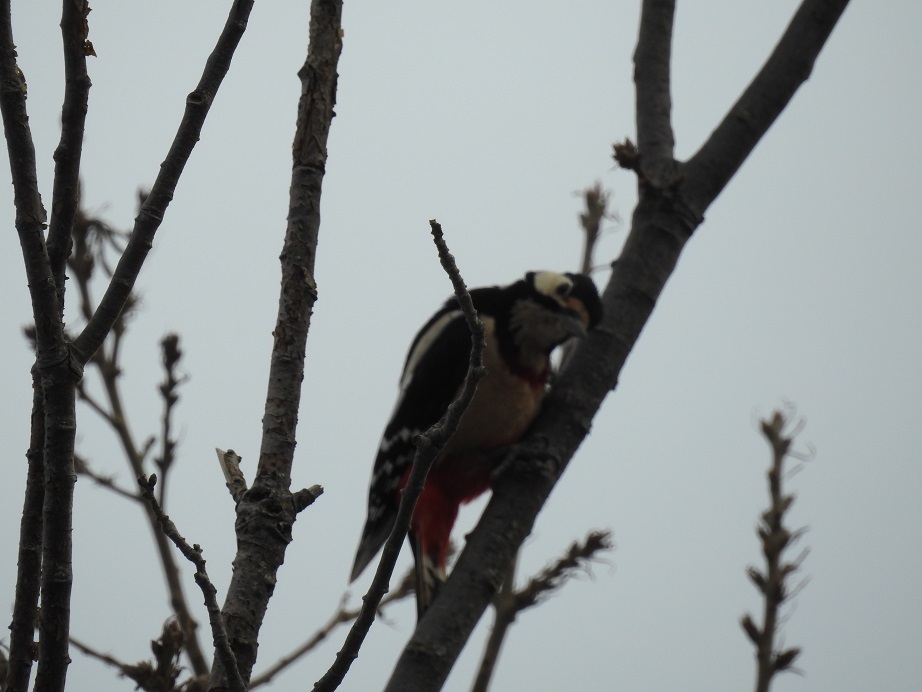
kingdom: Animalia
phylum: Chordata
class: Aves
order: Piciformes
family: Picidae
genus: Dendrocopos
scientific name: Dendrocopos major
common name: Great spotted woodpecker
